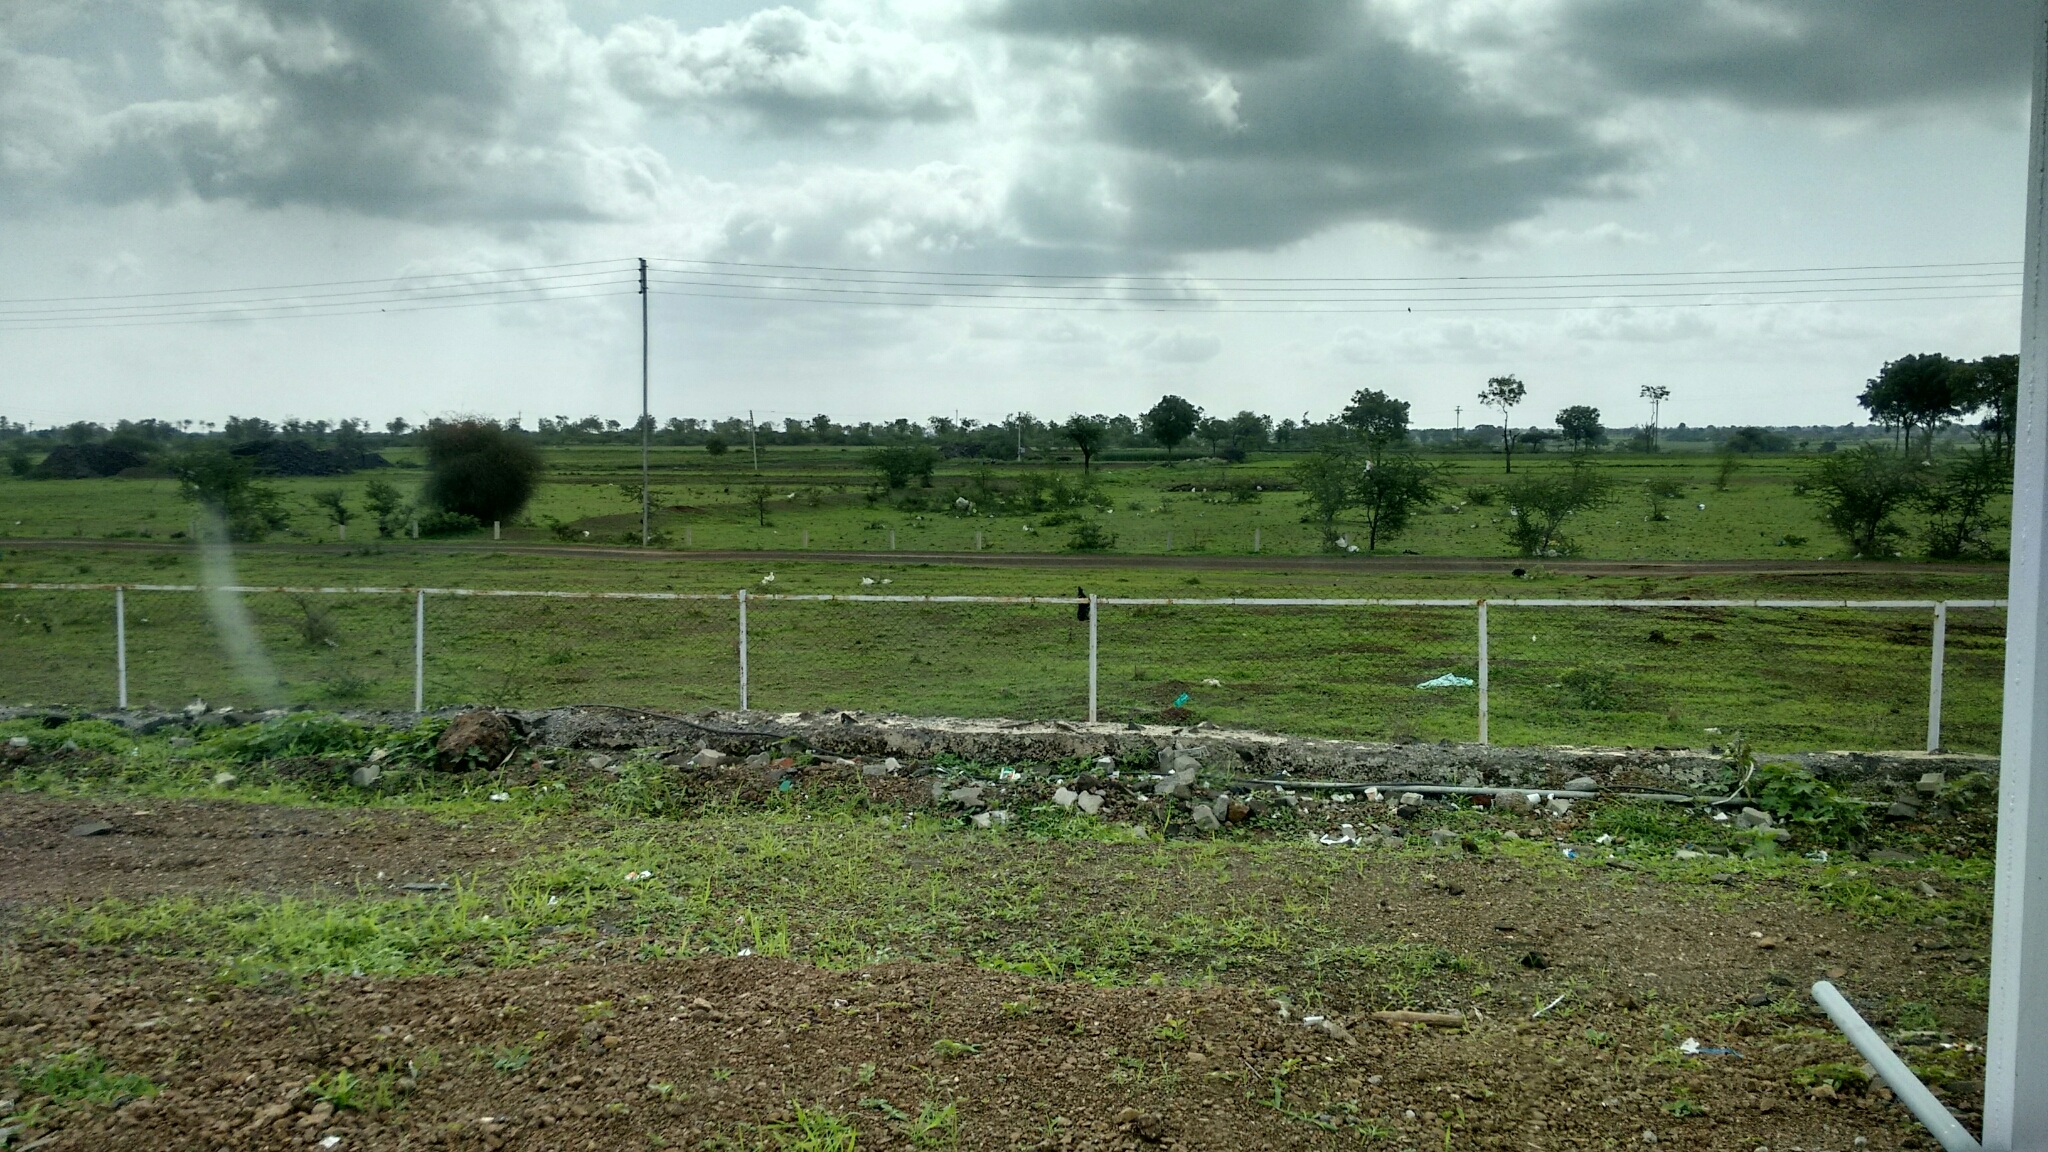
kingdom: Animalia
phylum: Chordata
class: Aves
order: Passeriformes
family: Muscicapidae
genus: Saxicoloides
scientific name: Saxicoloides fulicatus
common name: Indian robin
